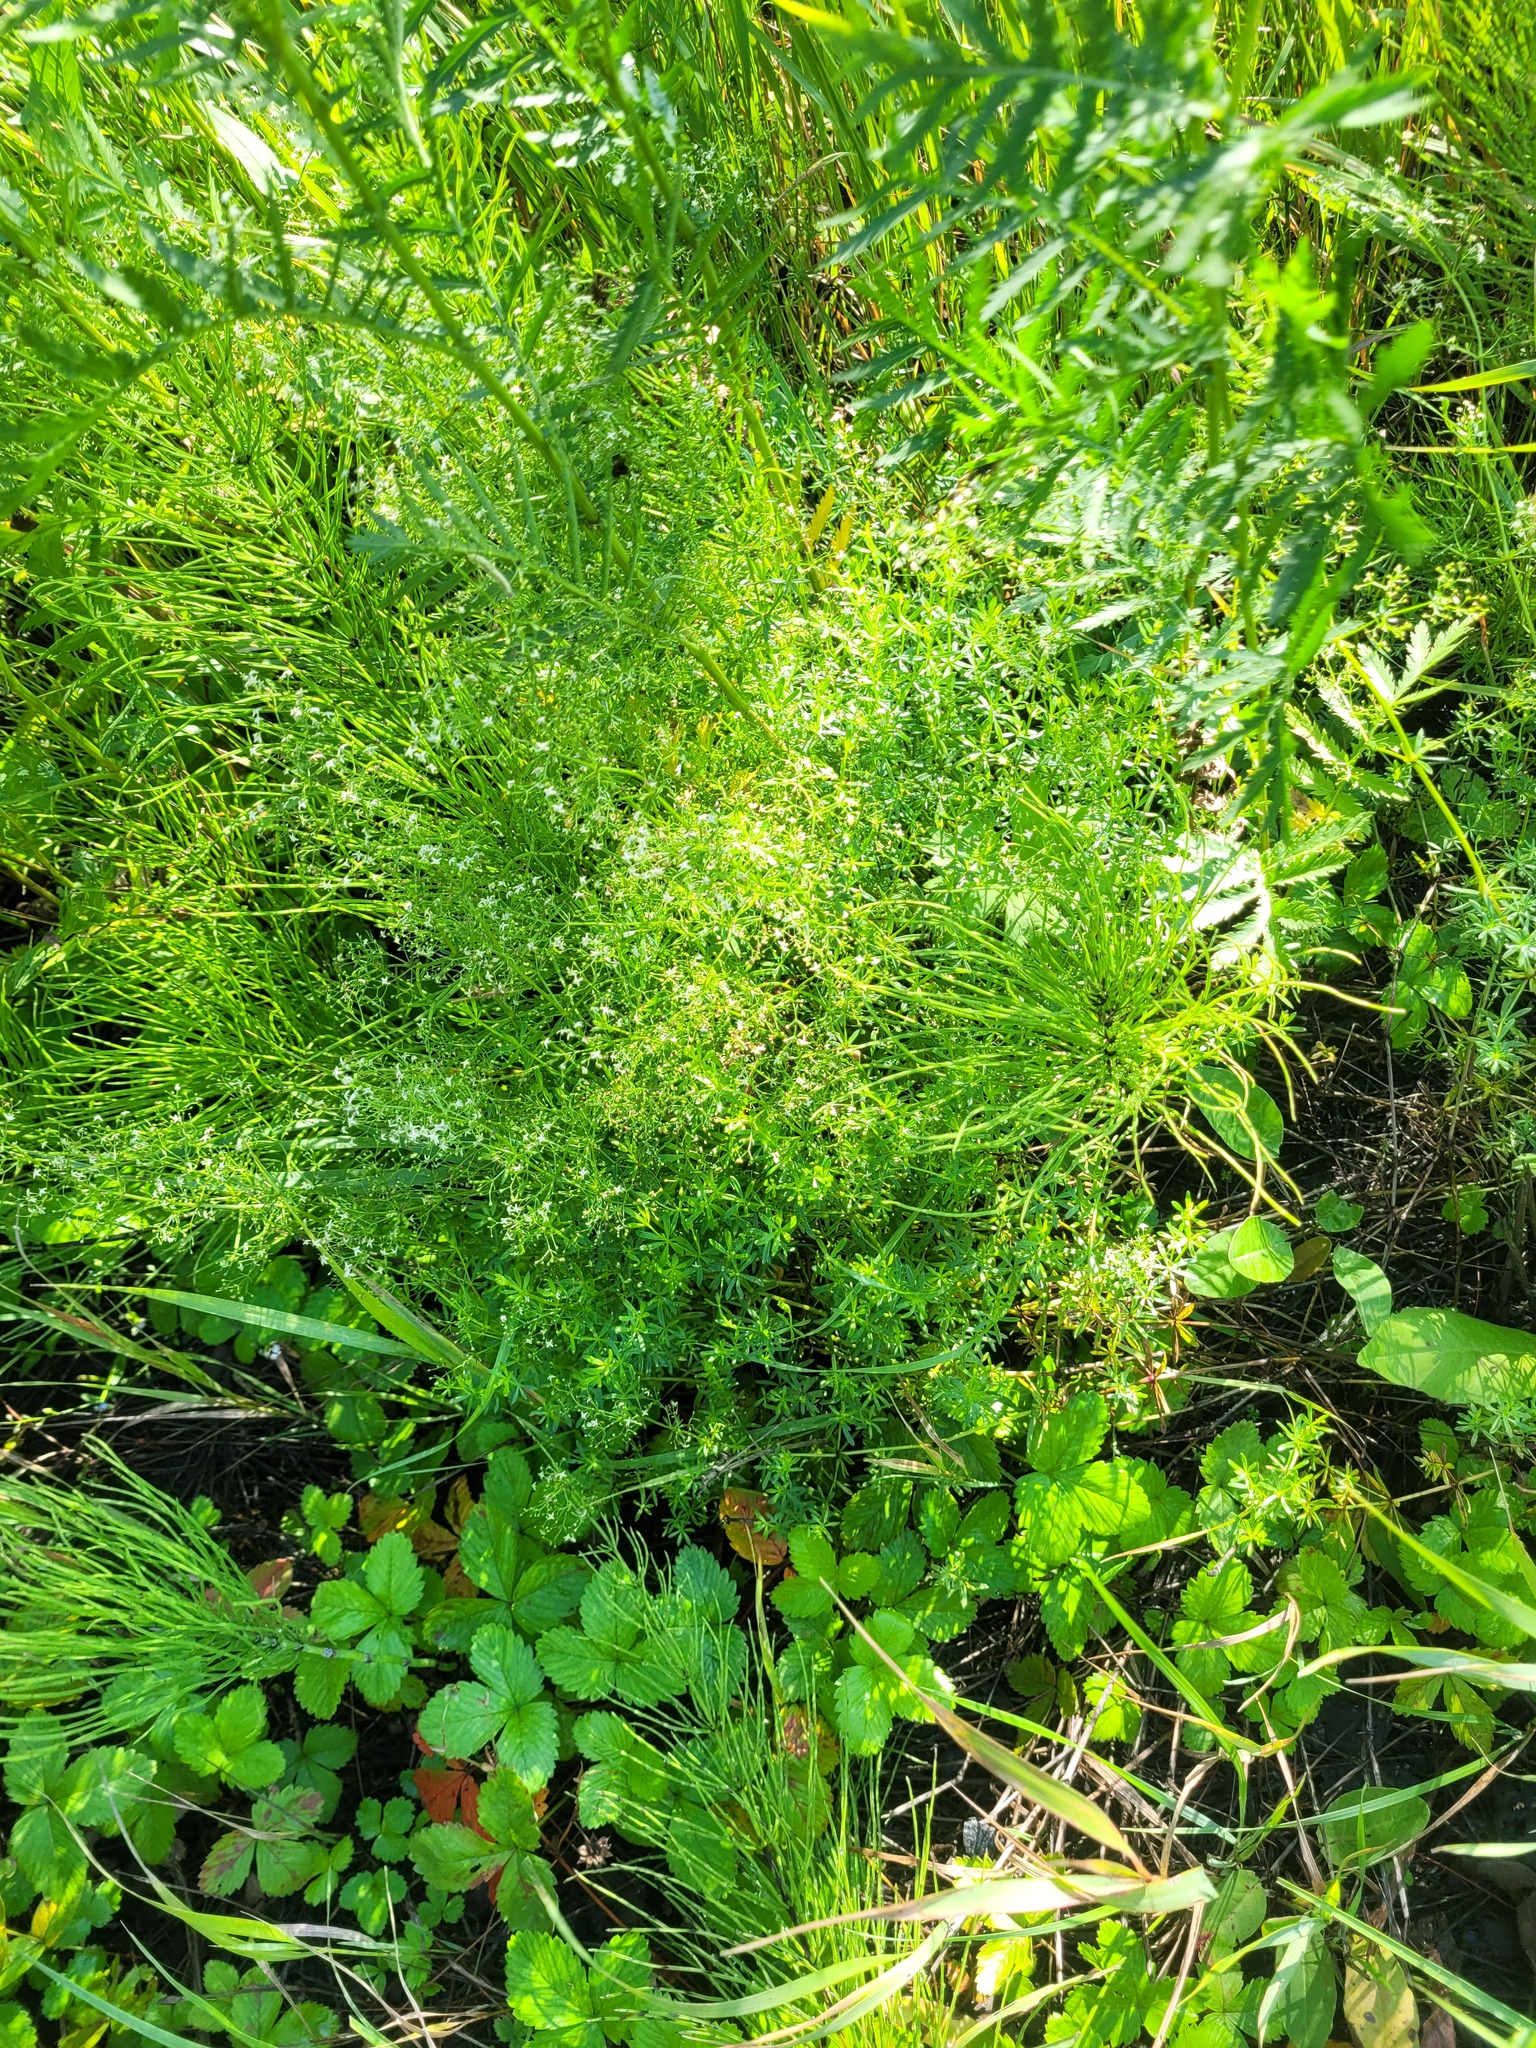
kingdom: Plantae
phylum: Tracheophyta
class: Magnoliopsida
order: Gentianales
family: Rubiaceae
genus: Galium
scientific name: Galium mollugo
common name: Hedge bedstraw
